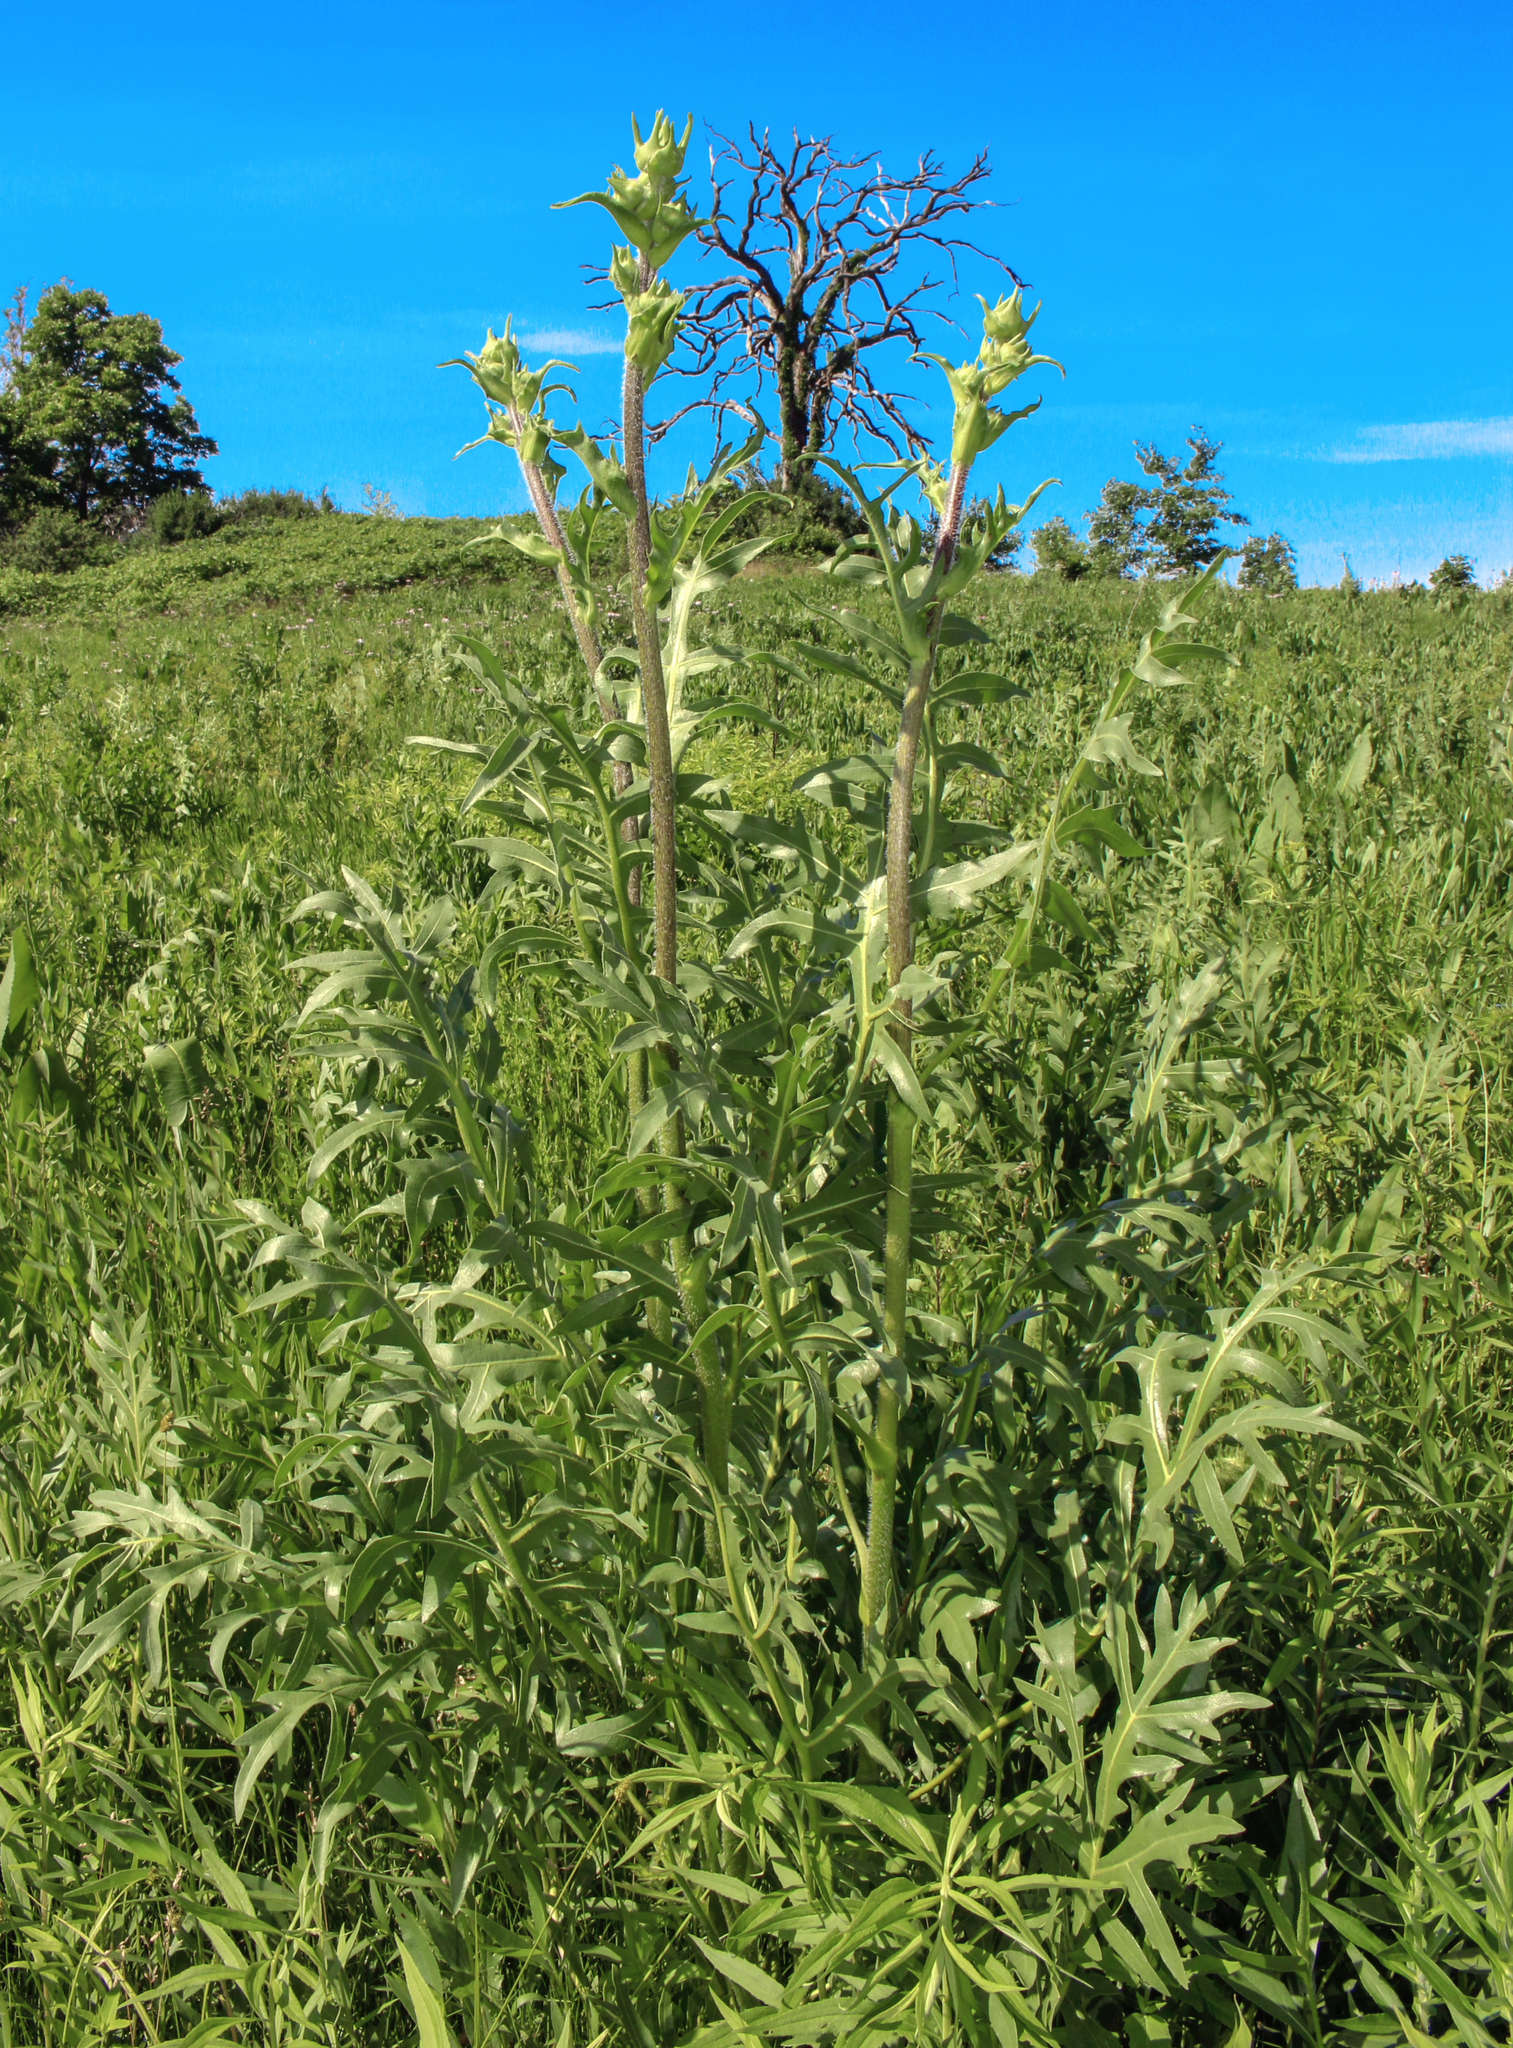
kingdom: Plantae
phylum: Tracheophyta
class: Magnoliopsida
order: Asterales
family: Asteraceae
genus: Silphium
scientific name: Silphium laciniatum
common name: Polarplant
